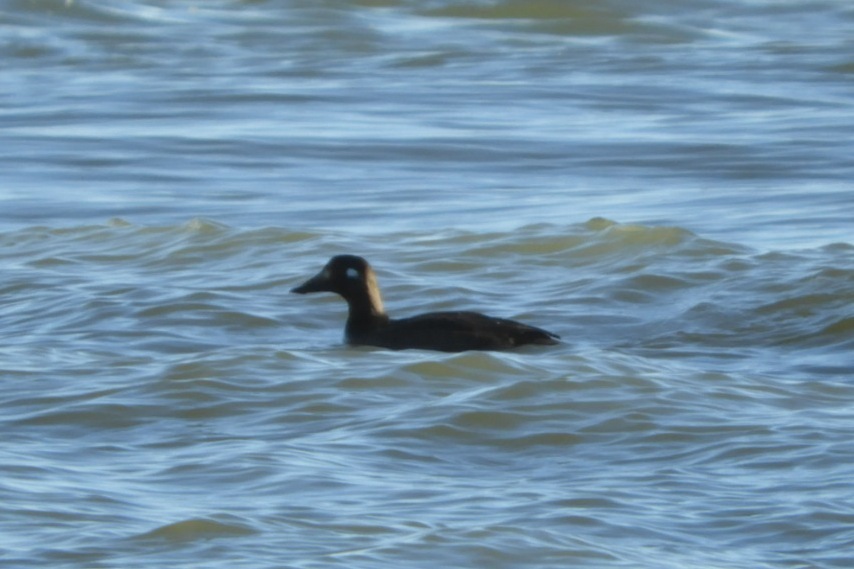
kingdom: Animalia
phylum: Chordata
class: Aves
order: Anseriformes
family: Anatidae
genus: Melanitta
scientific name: Melanitta perspicillata
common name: Surf scoter
